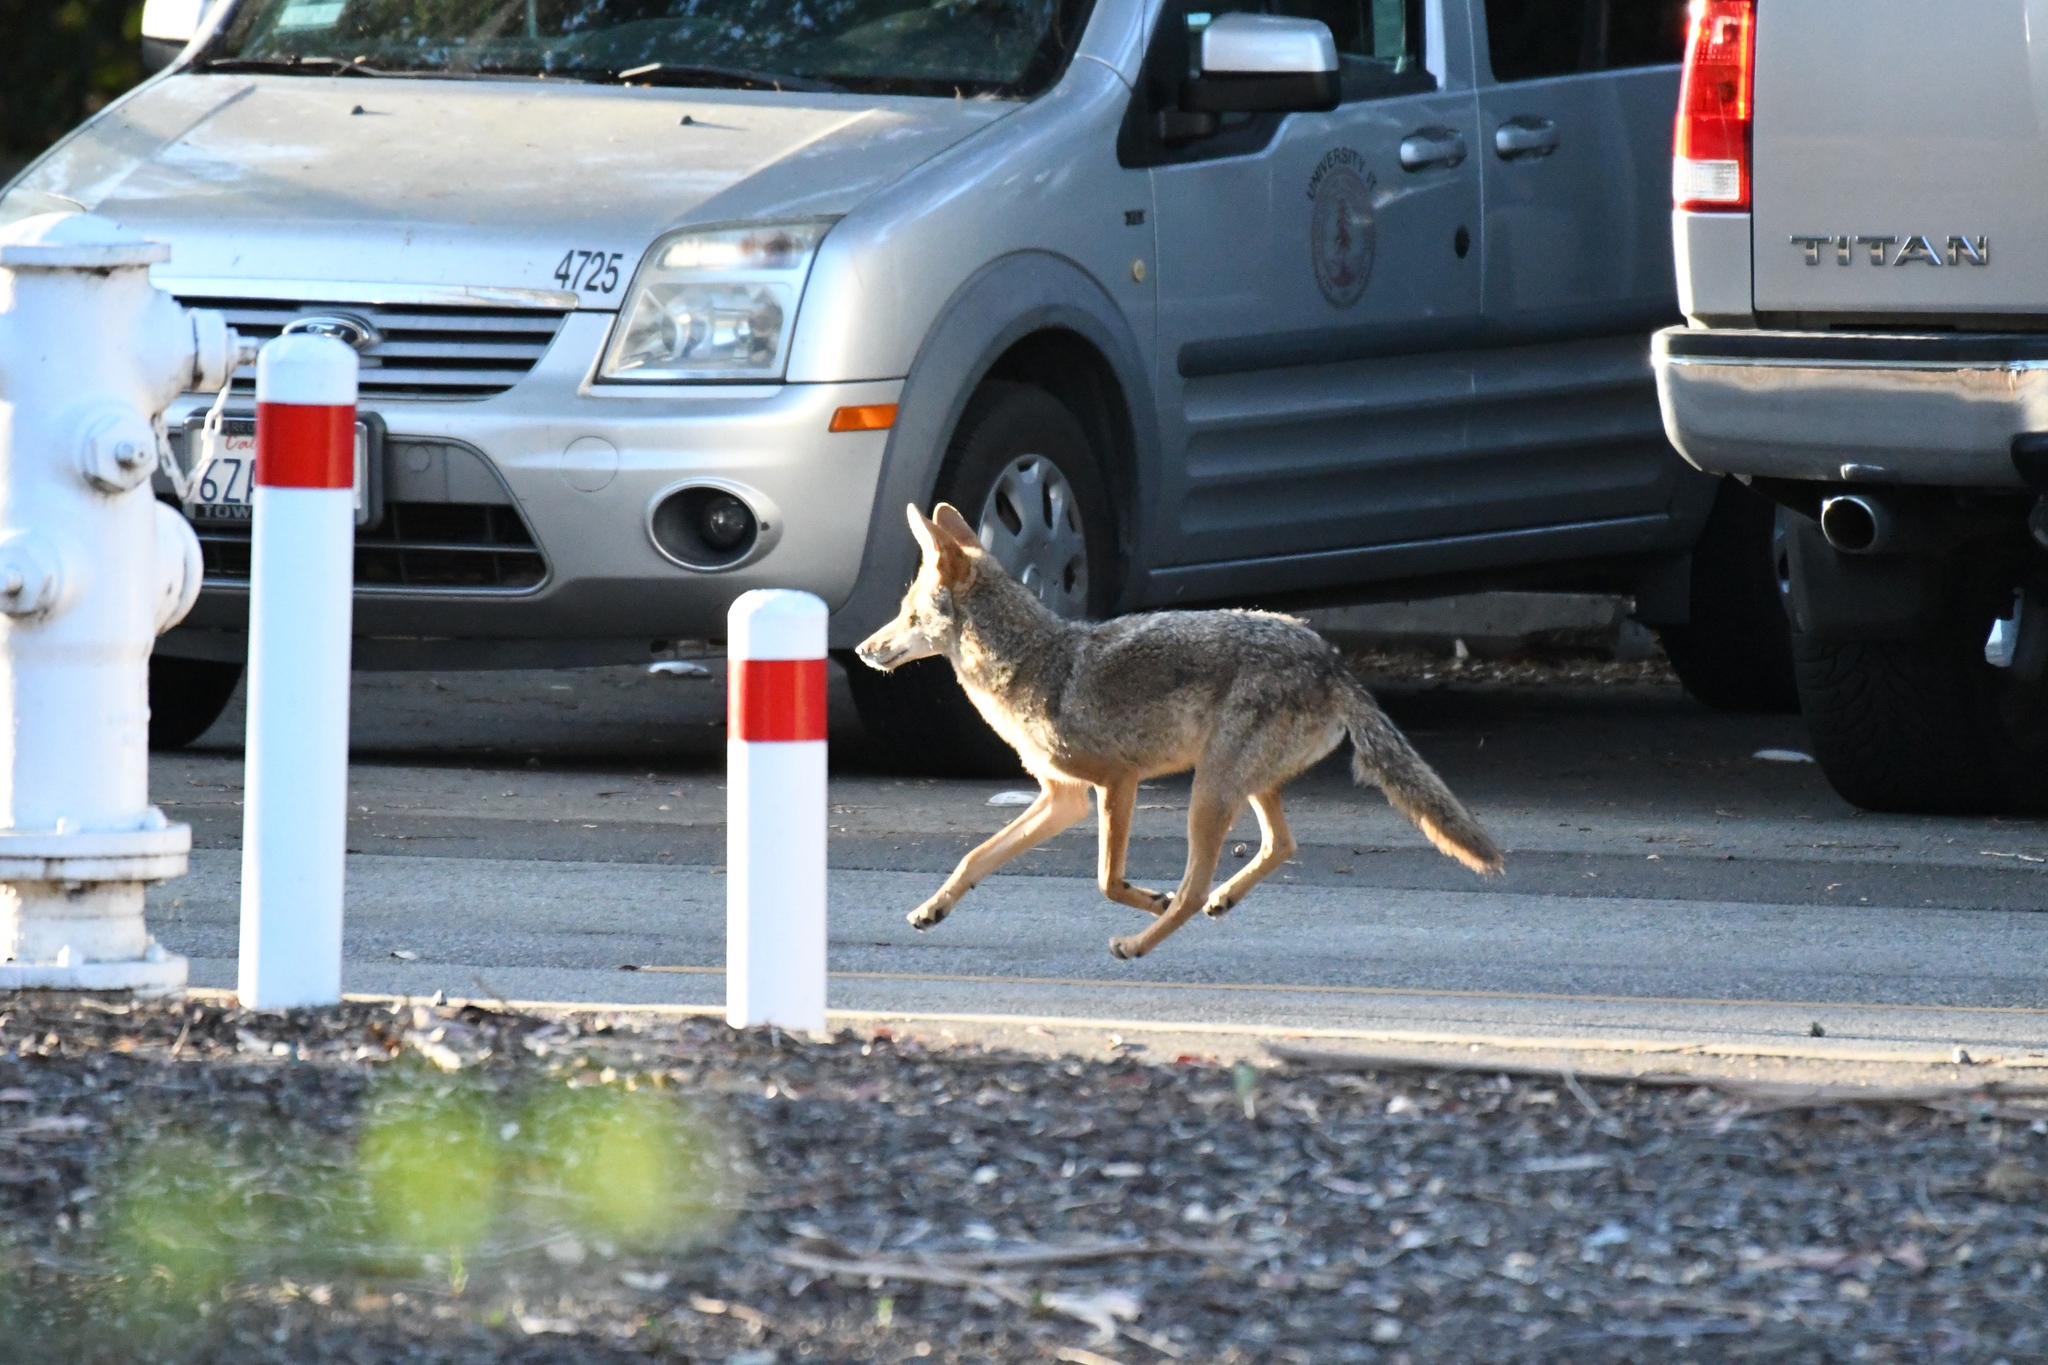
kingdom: Animalia
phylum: Chordata
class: Mammalia
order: Carnivora
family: Canidae
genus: Canis
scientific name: Canis latrans
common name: Coyote
